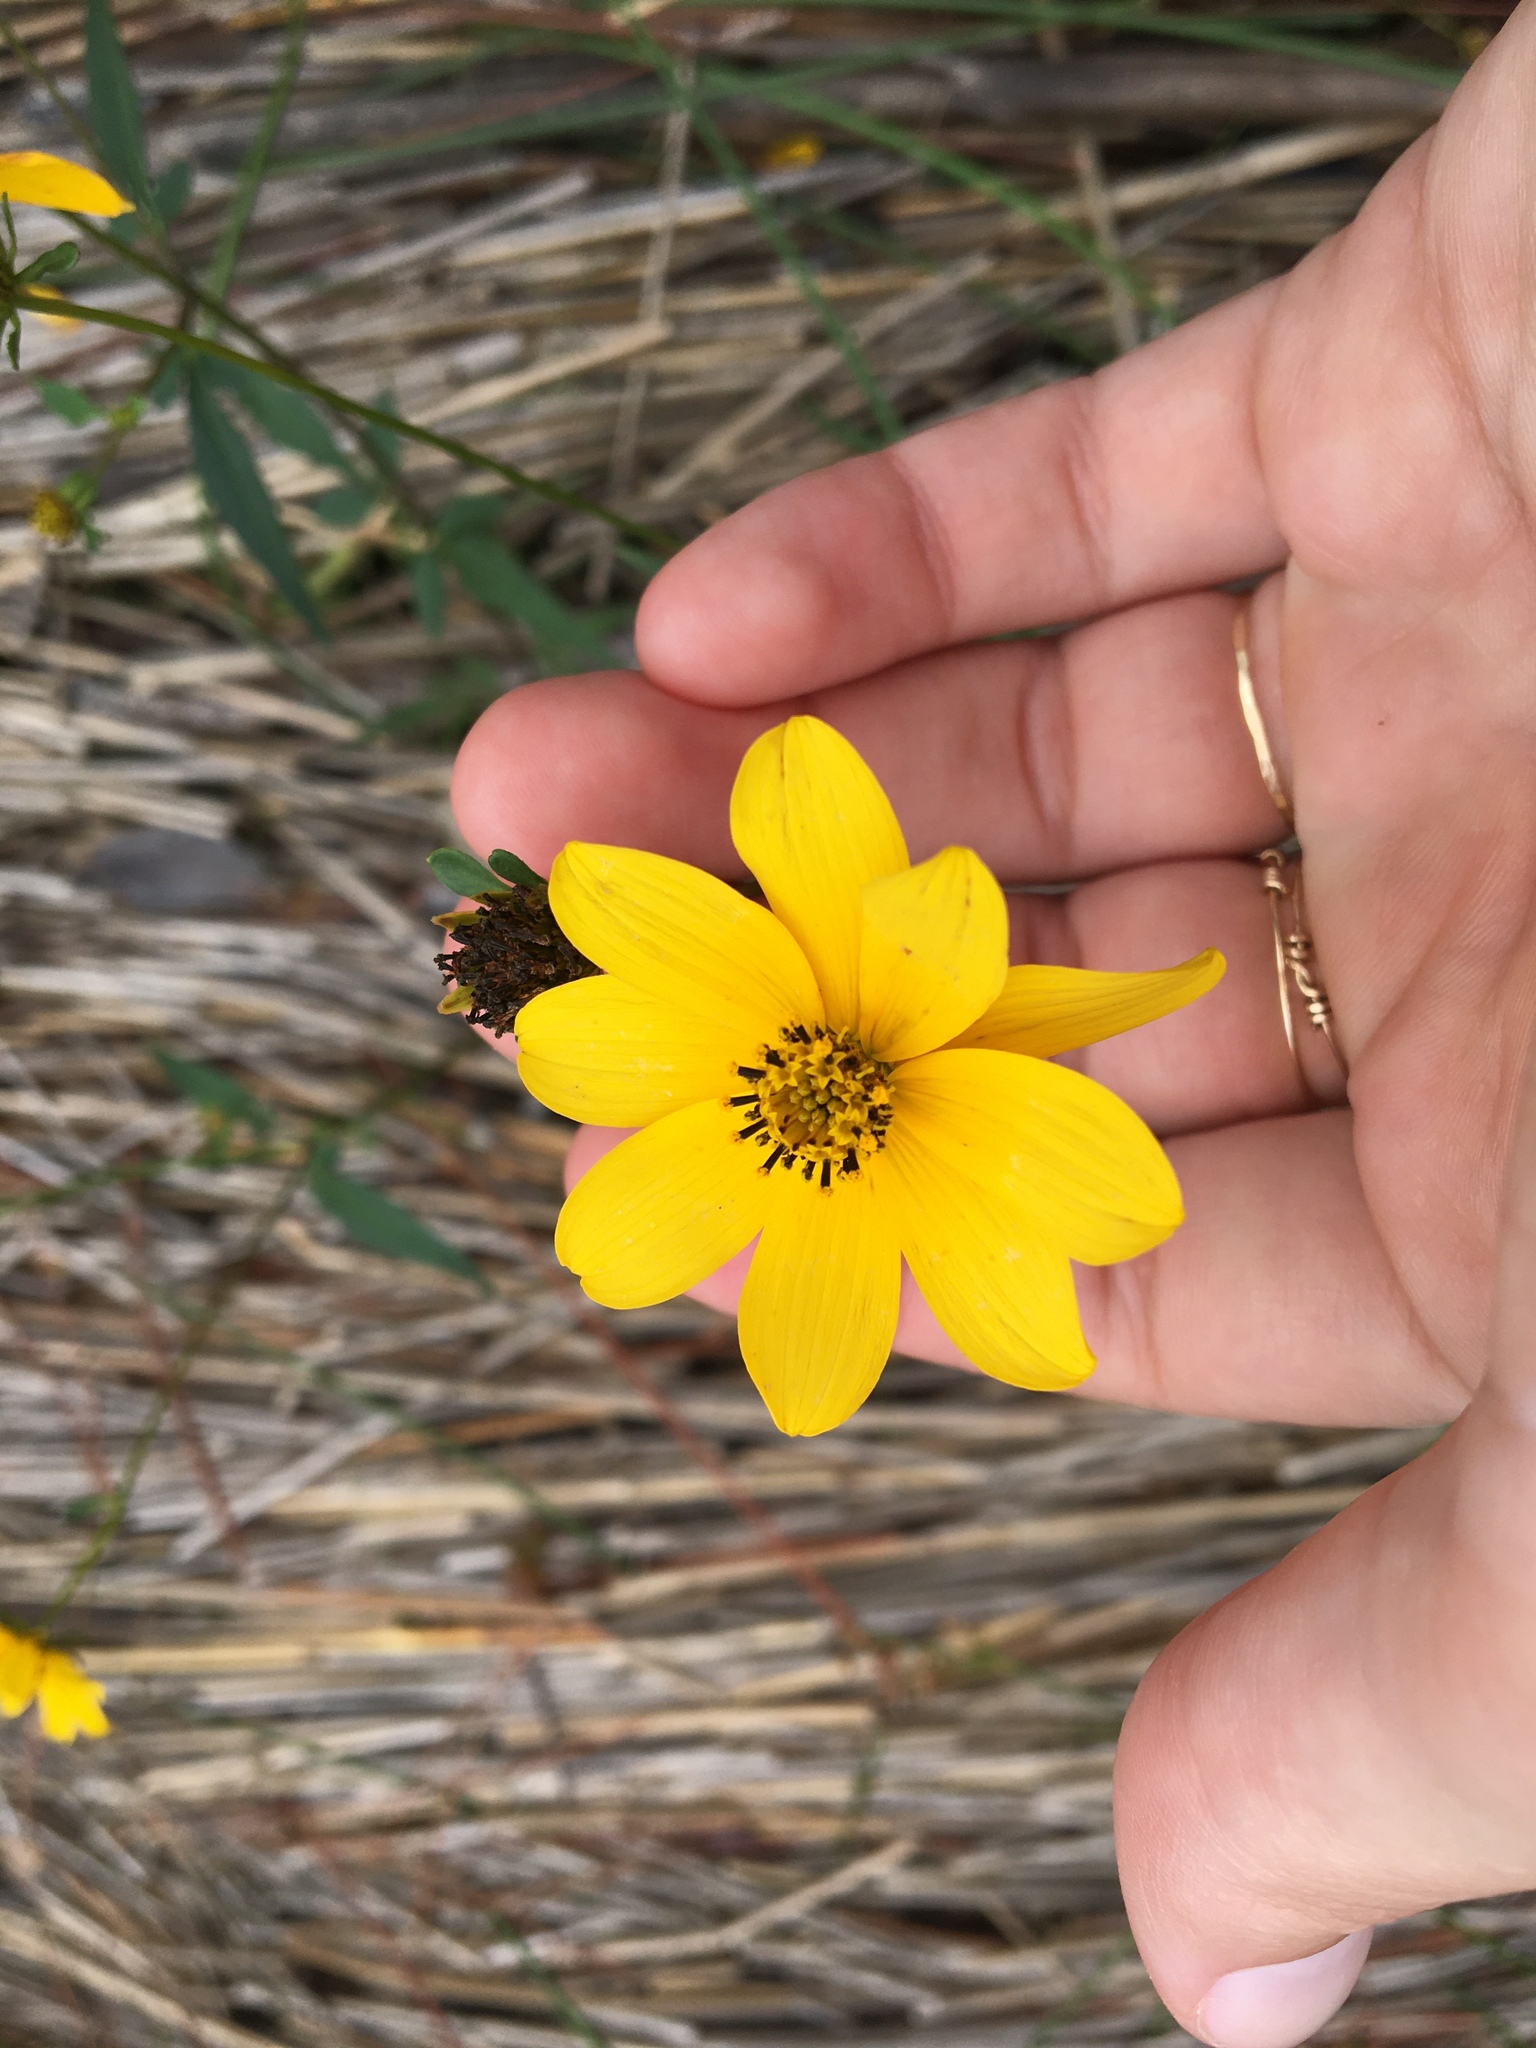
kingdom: Plantae
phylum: Tracheophyta
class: Magnoliopsida
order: Asterales
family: Asteraceae
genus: Bidens
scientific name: Bidens mitis
